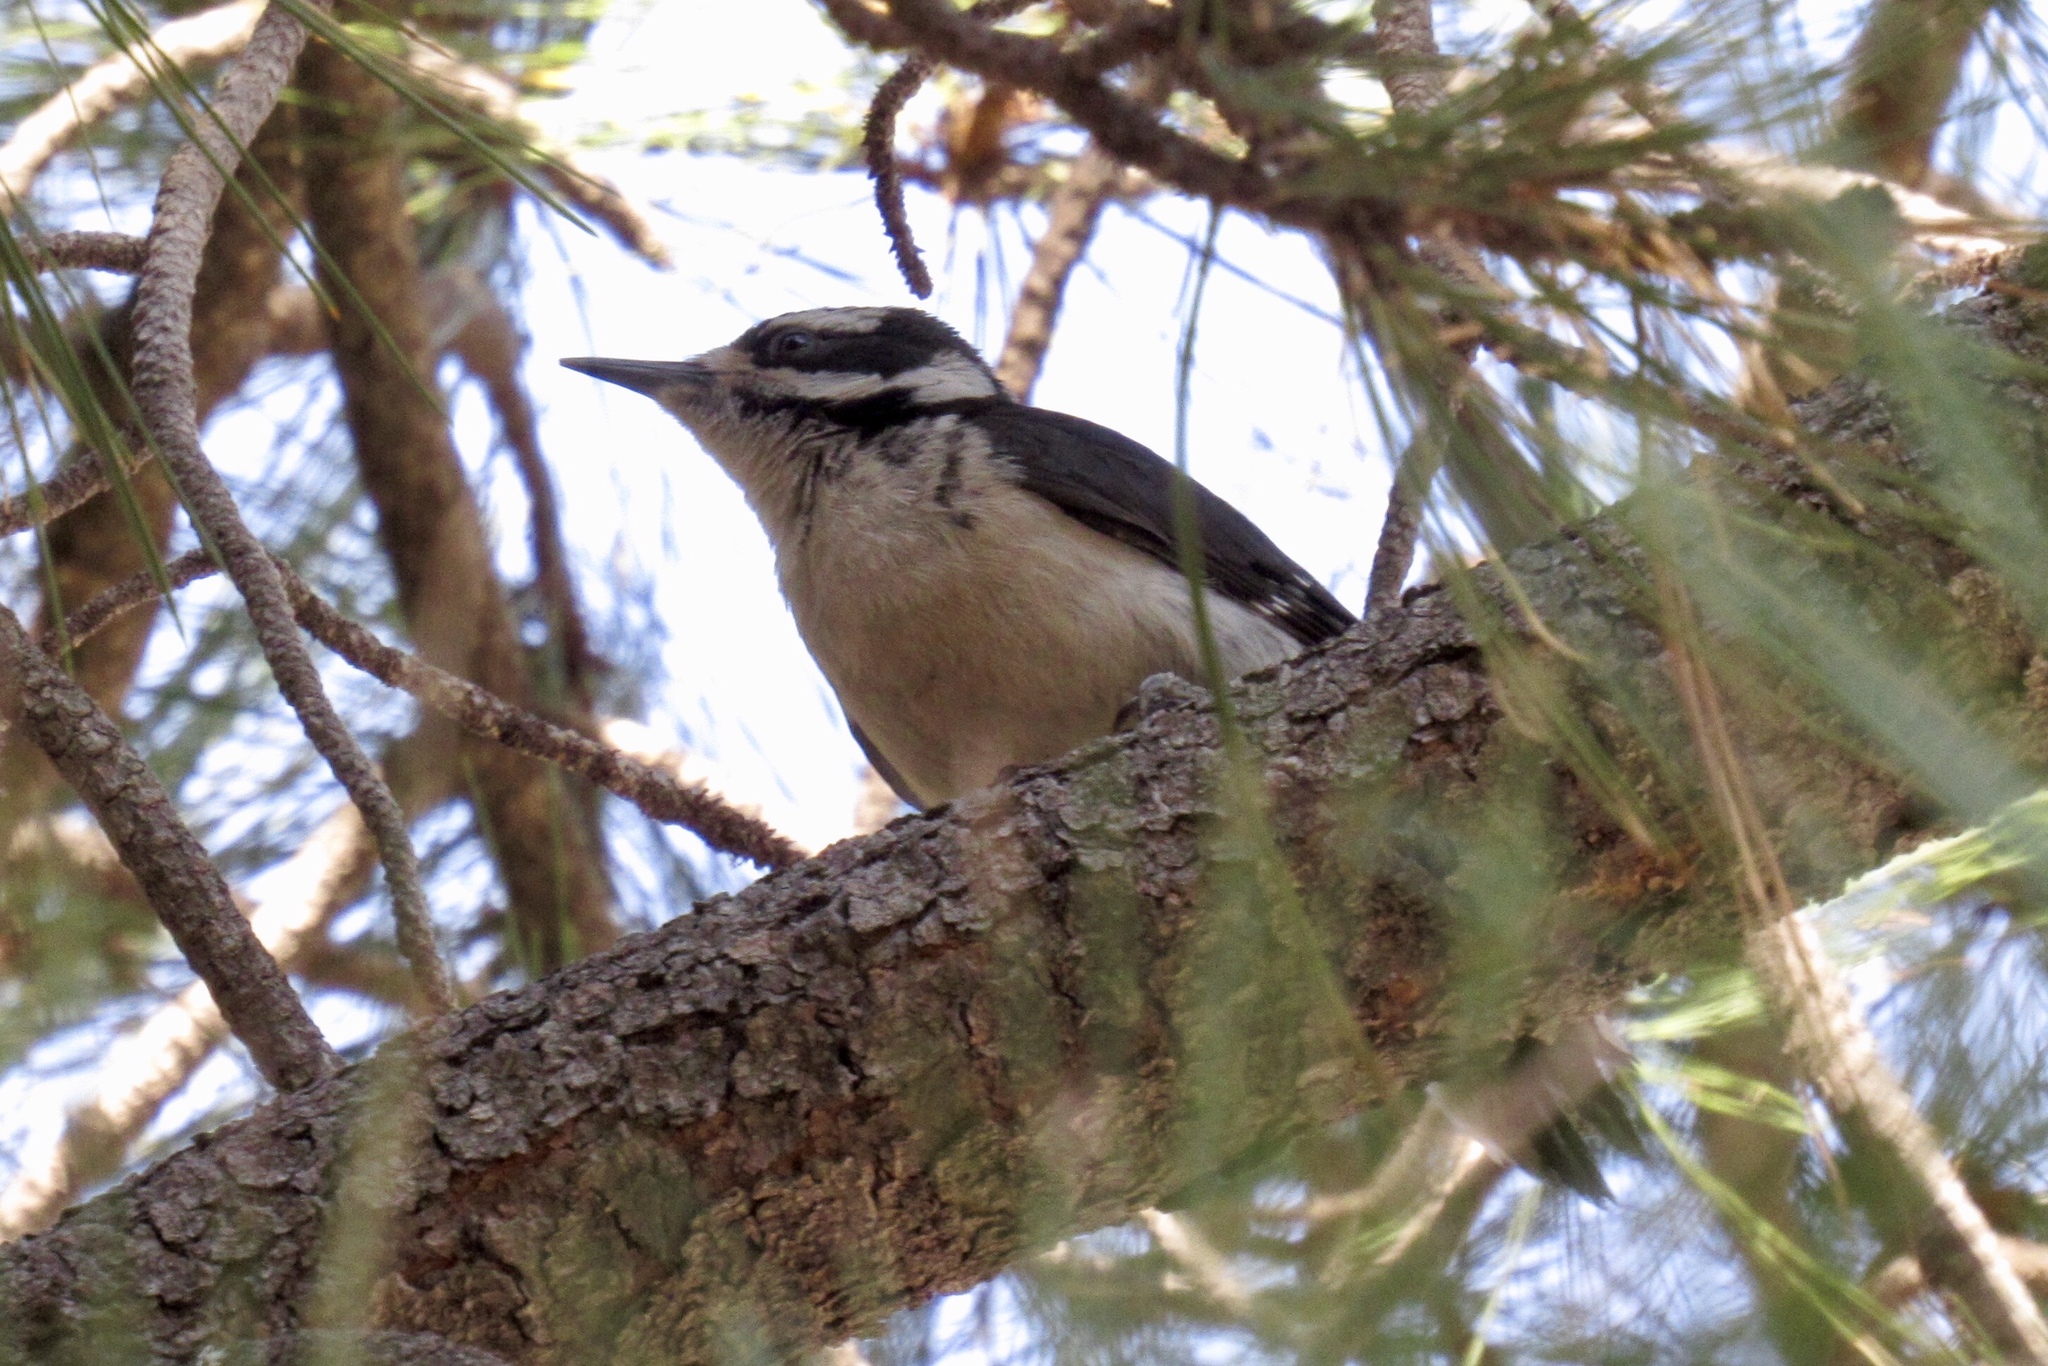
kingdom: Animalia
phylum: Chordata
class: Aves
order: Piciformes
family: Picidae
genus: Leuconotopicus
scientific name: Leuconotopicus villosus
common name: Hairy woodpecker
